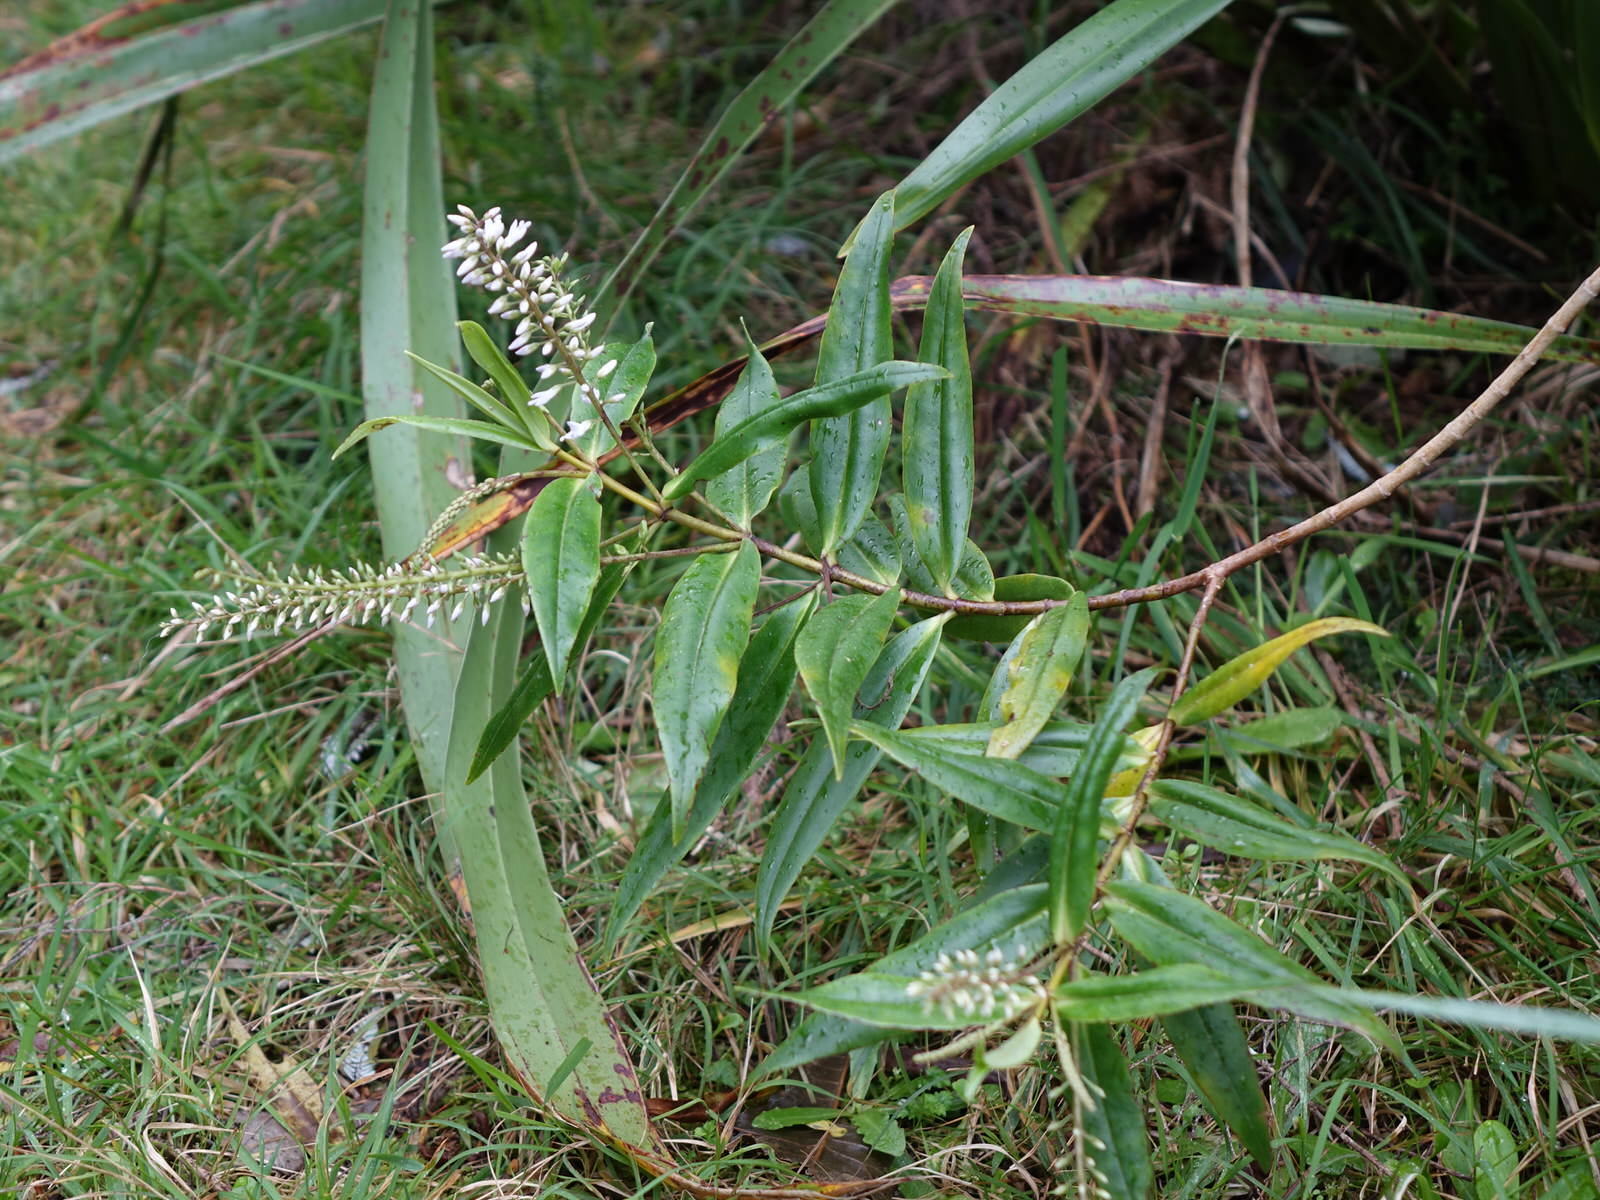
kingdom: Plantae
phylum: Tracheophyta
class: Magnoliopsida
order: Lamiales
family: Plantaginaceae
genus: Veronica
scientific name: Veronica stricta
